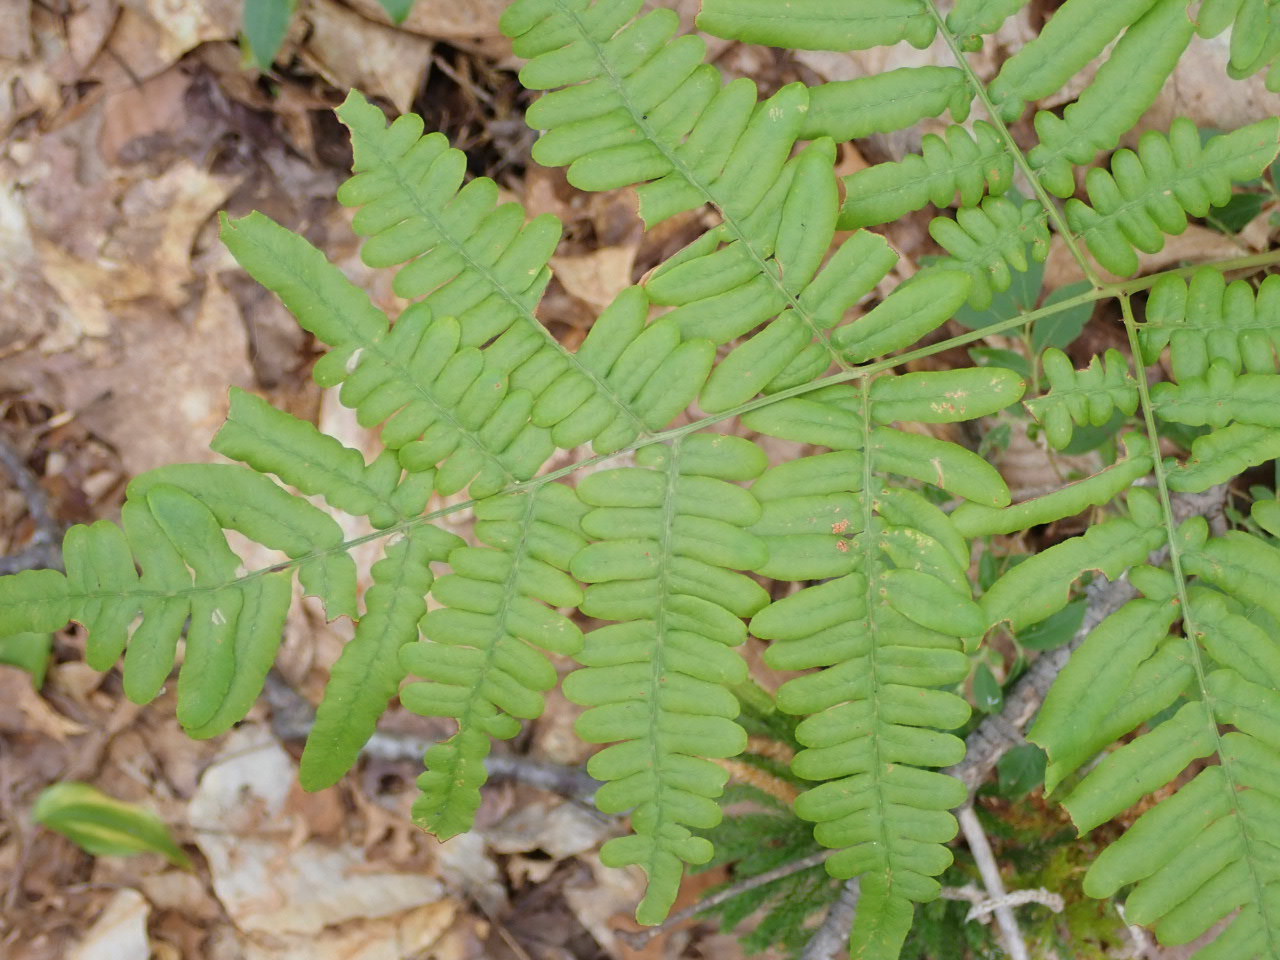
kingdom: Plantae
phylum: Tracheophyta
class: Polypodiopsida
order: Polypodiales
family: Dennstaedtiaceae
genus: Pteridium
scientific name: Pteridium aquilinum
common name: Bracken
